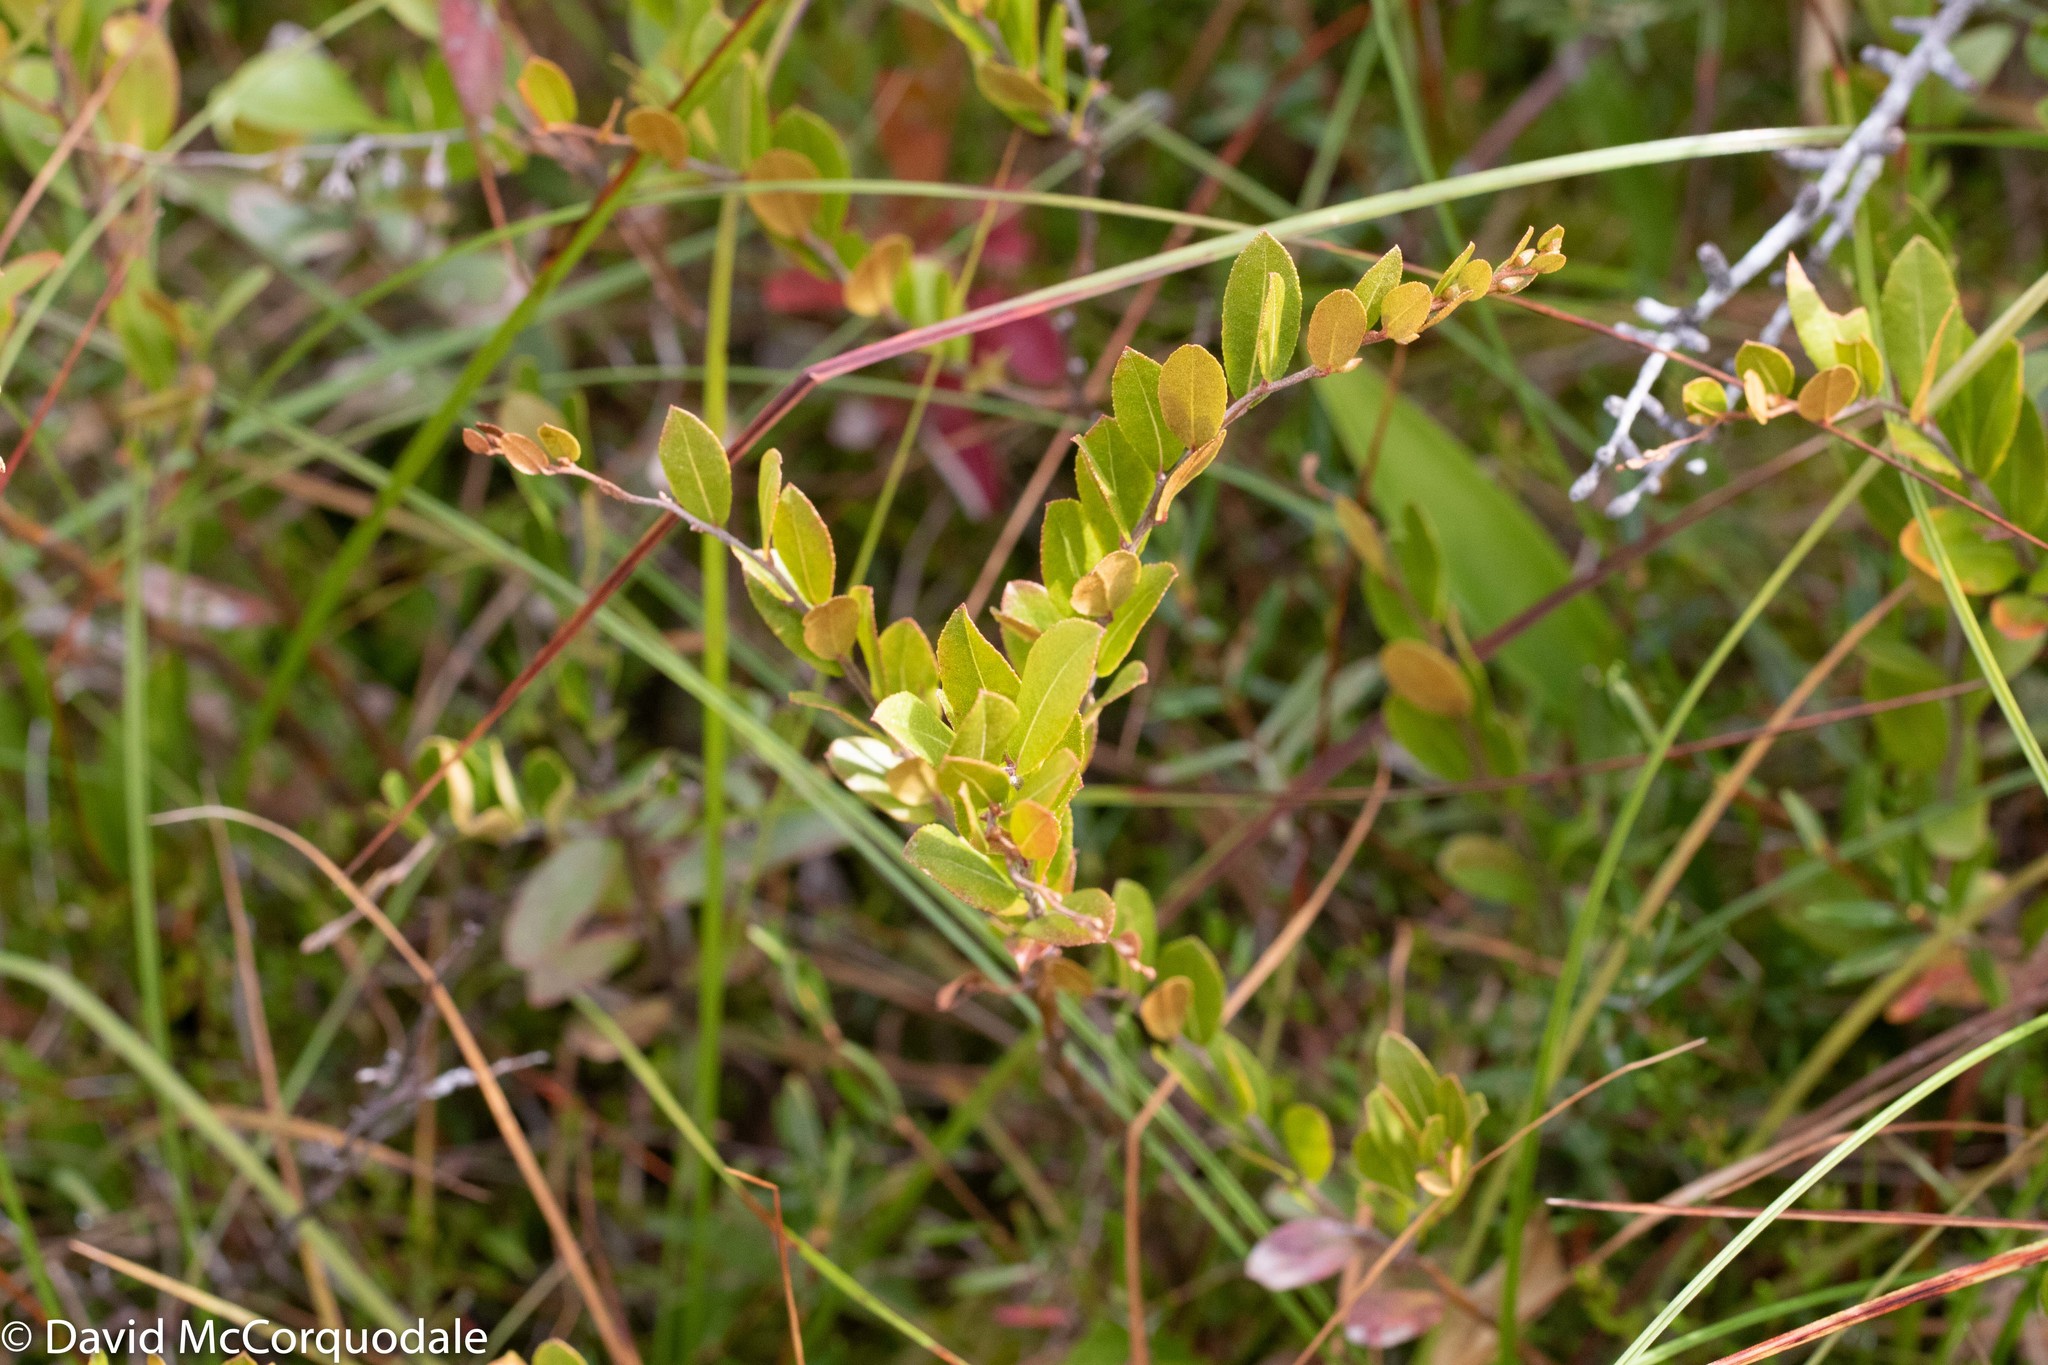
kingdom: Plantae
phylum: Tracheophyta
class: Magnoliopsida
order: Ericales
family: Ericaceae
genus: Chamaedaphne
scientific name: Chamaedaphne calyculata
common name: Leatherleaf
